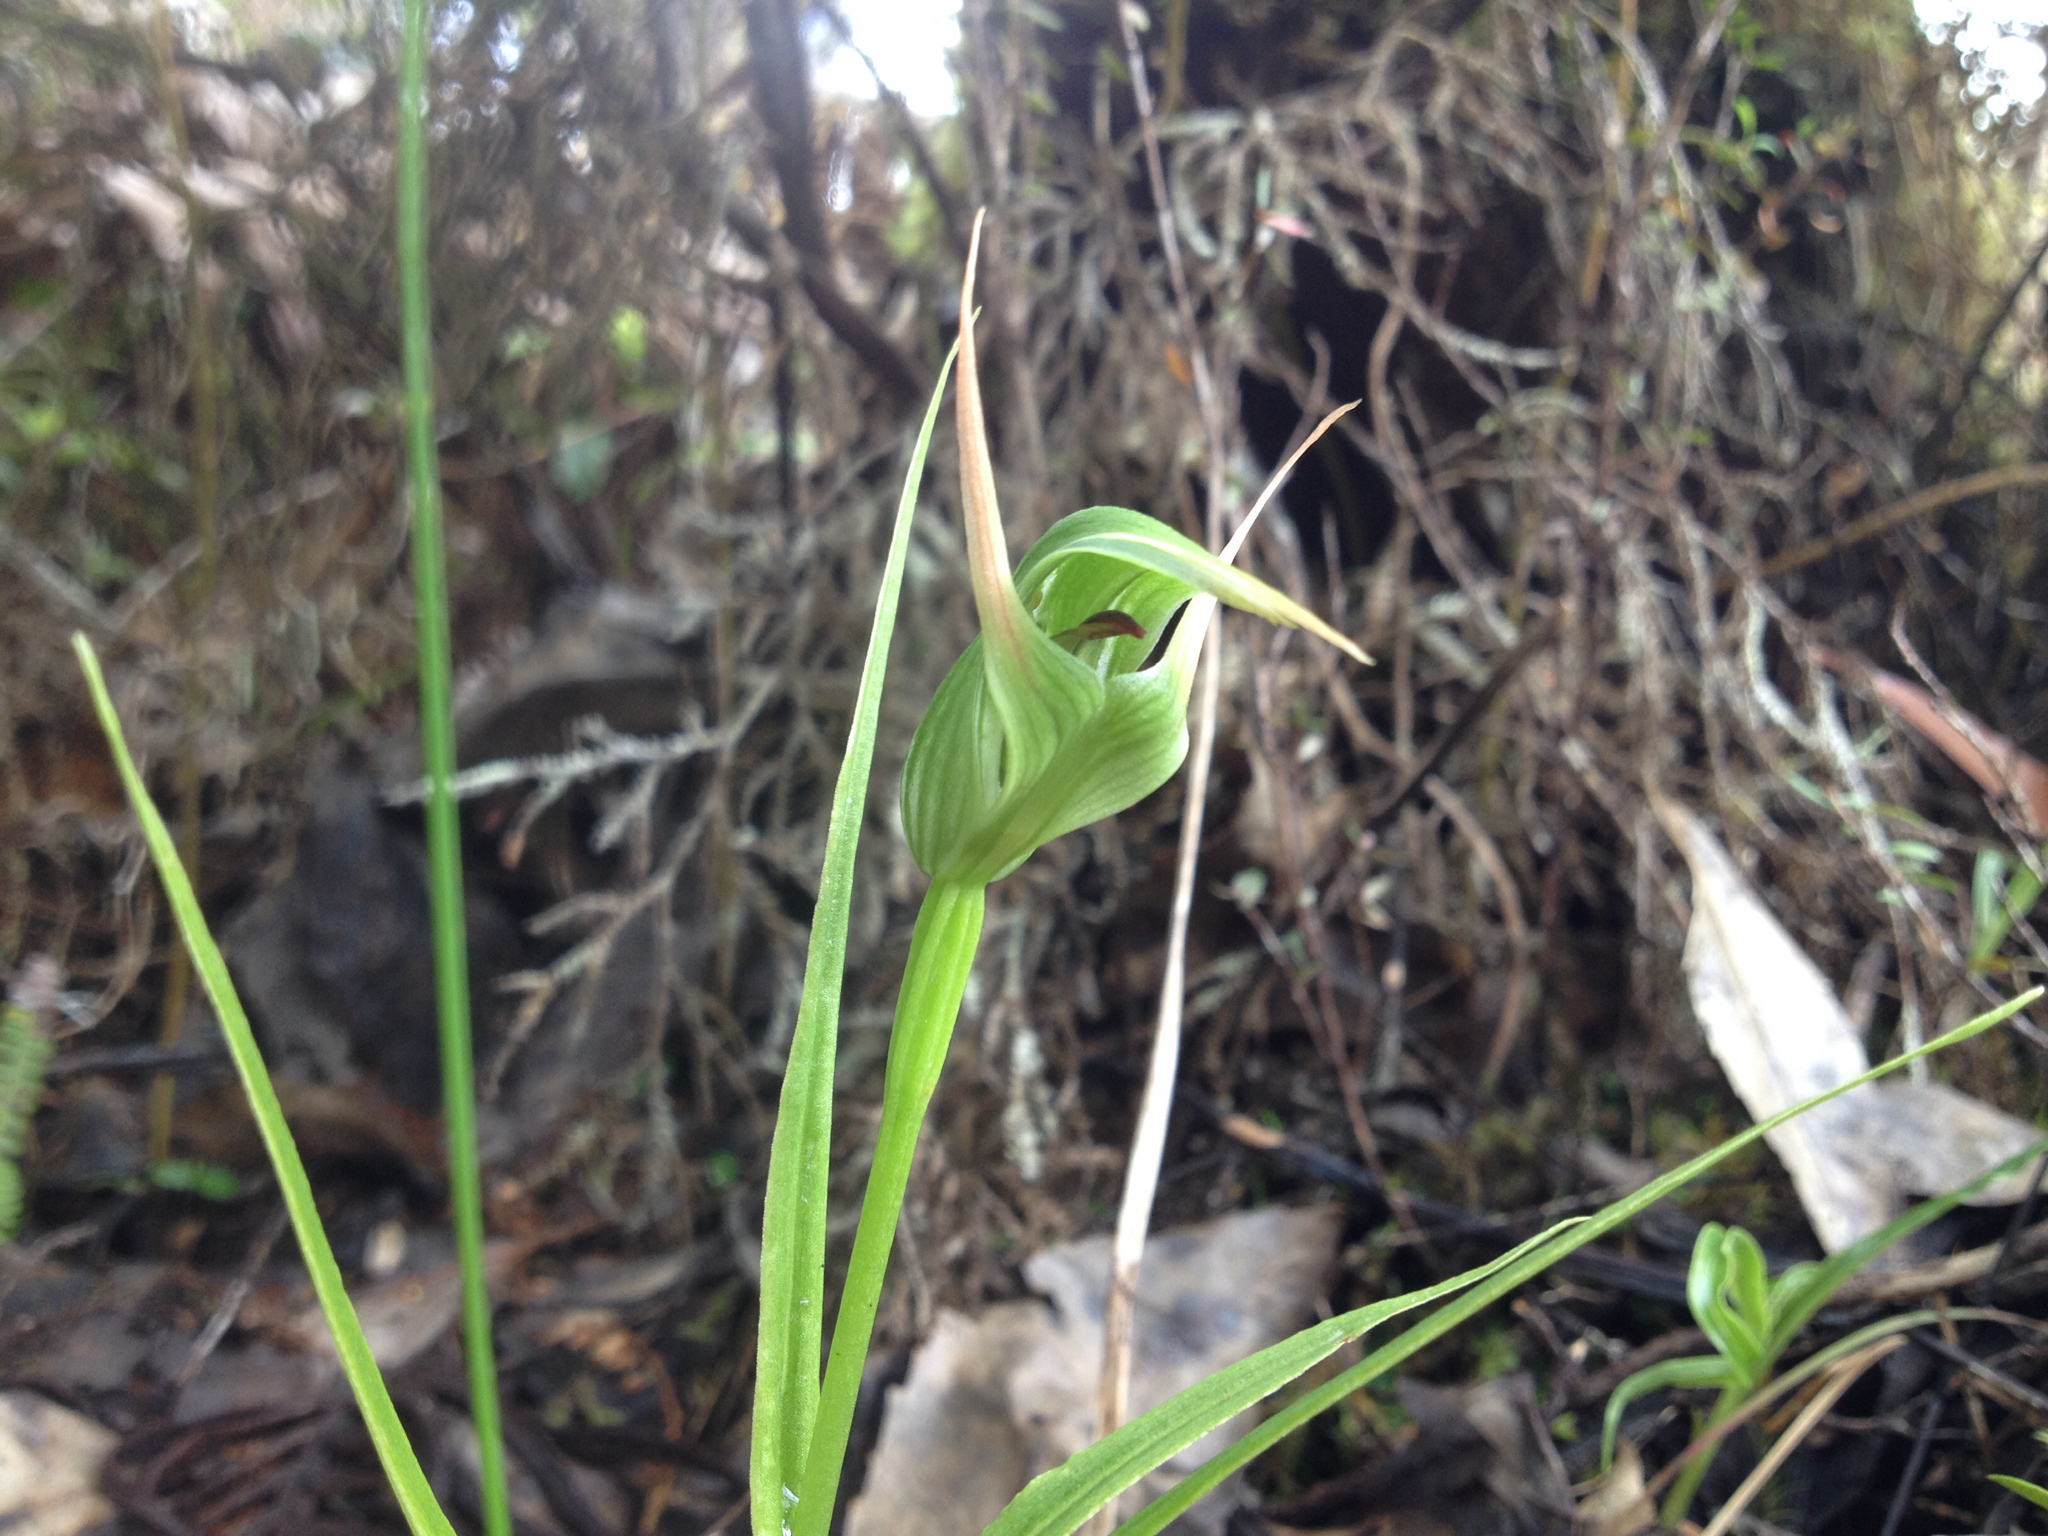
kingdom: Plantae
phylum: Tracheophyta
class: Liliopsida
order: Asparagales
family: Orchidaceae
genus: Pterostylis
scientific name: Pterostylis montana
